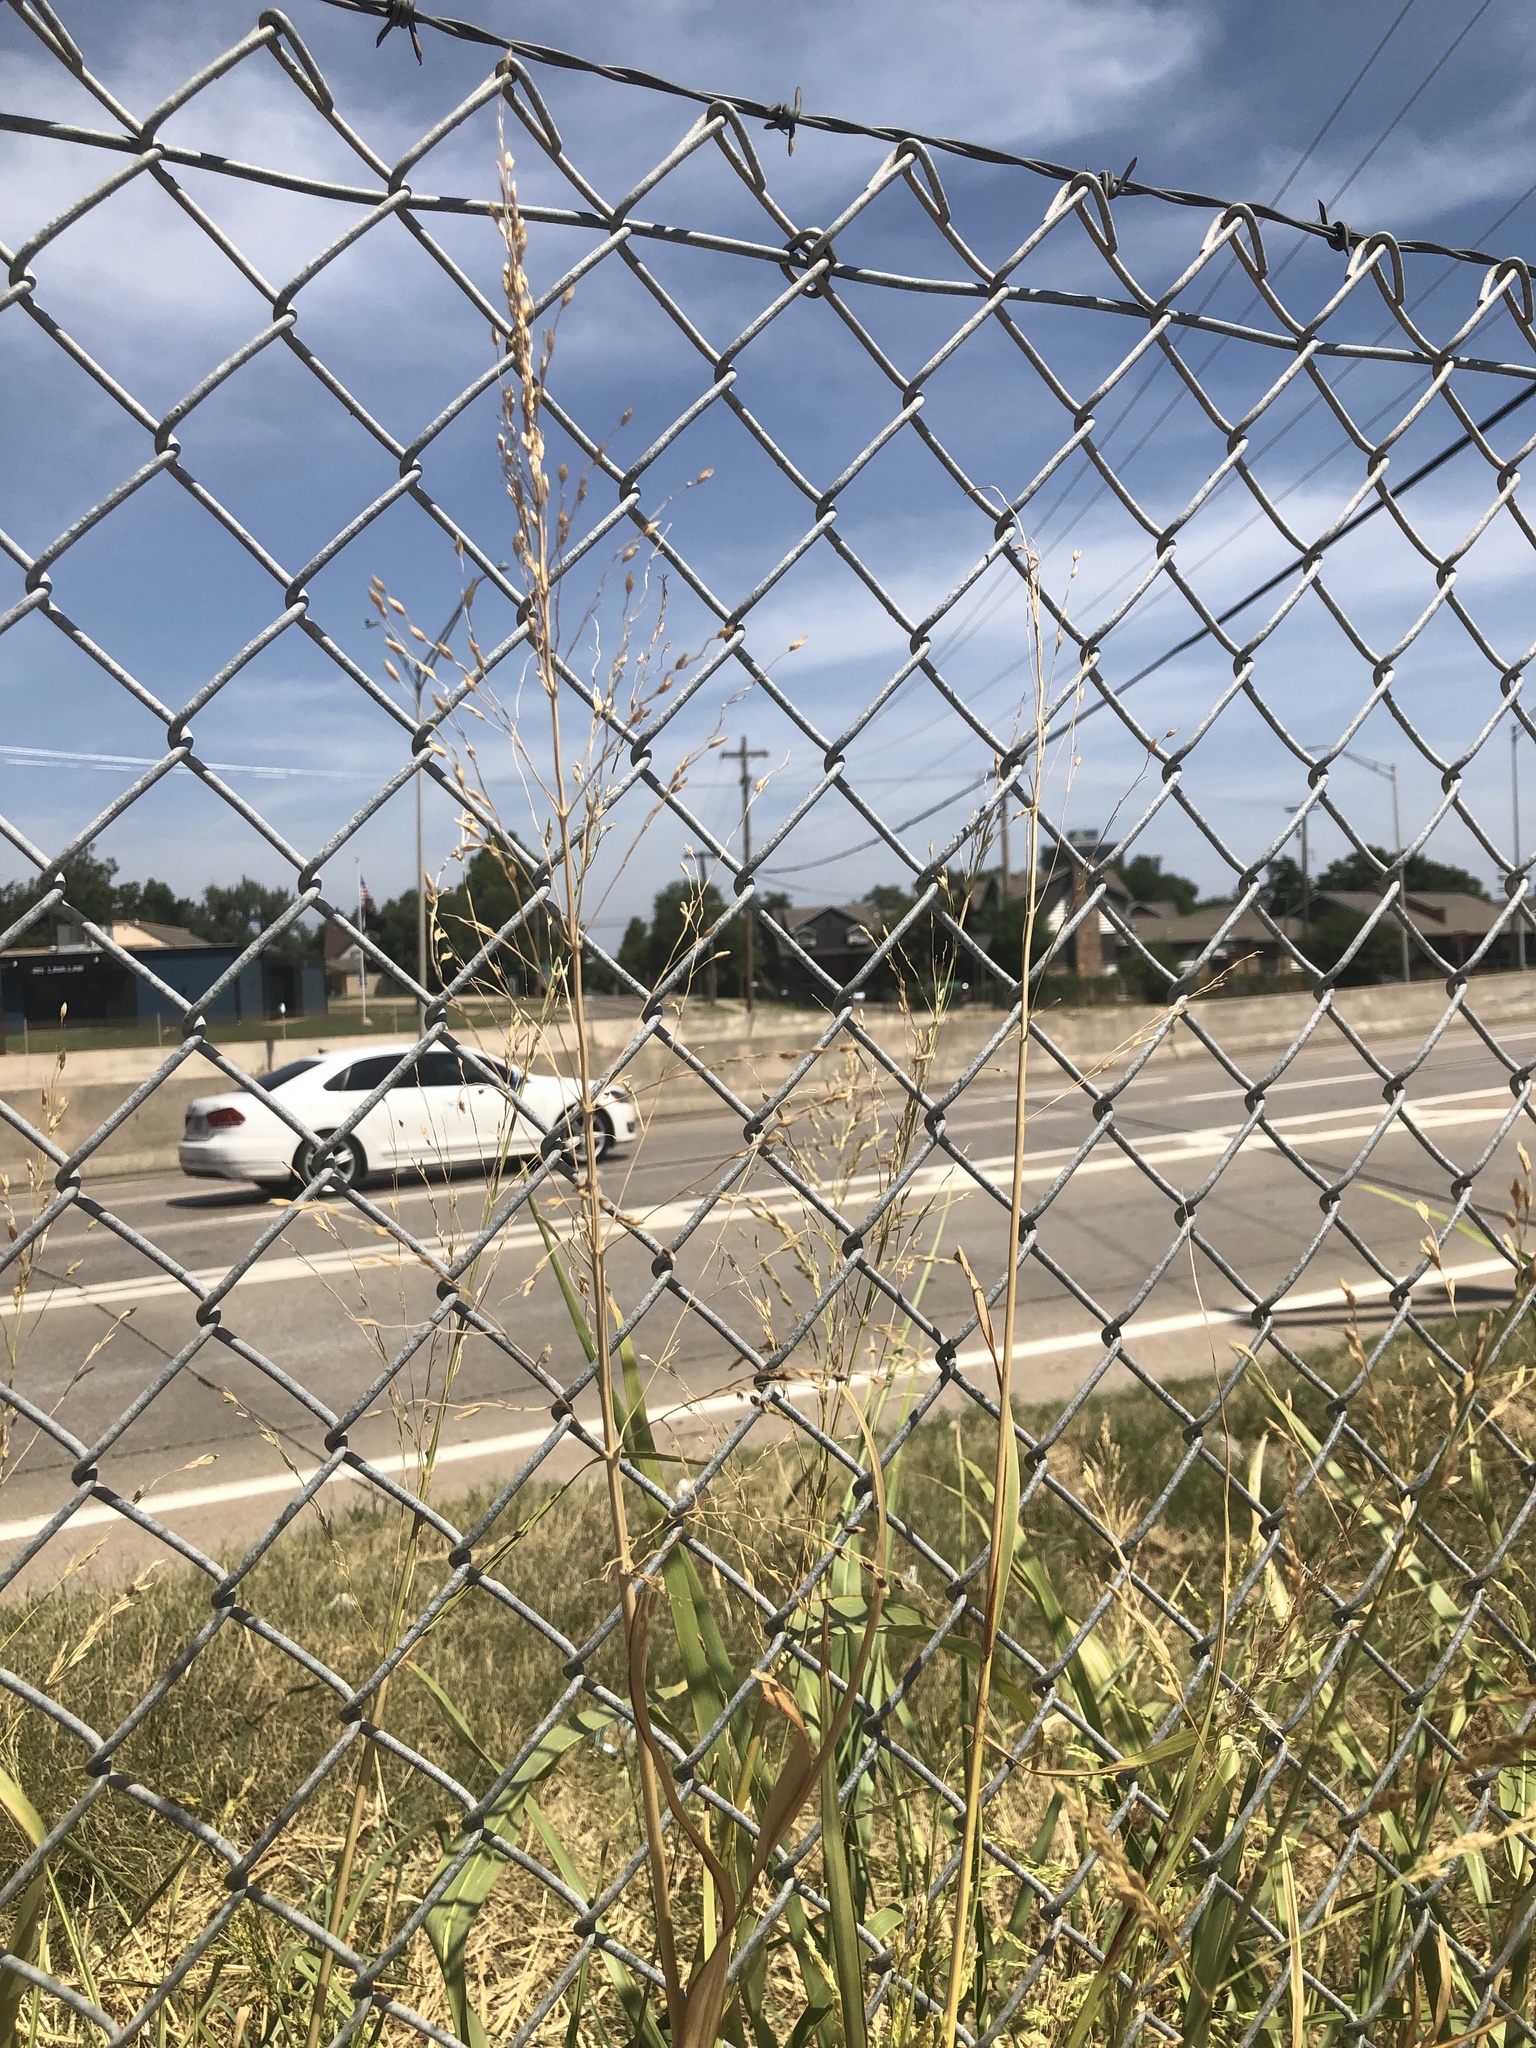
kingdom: Plantae
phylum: Tracheophyta
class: Liliopsida
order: Poales
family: Poaceae
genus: Sorghum
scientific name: Sorghum halepense
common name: Johnson-grass
